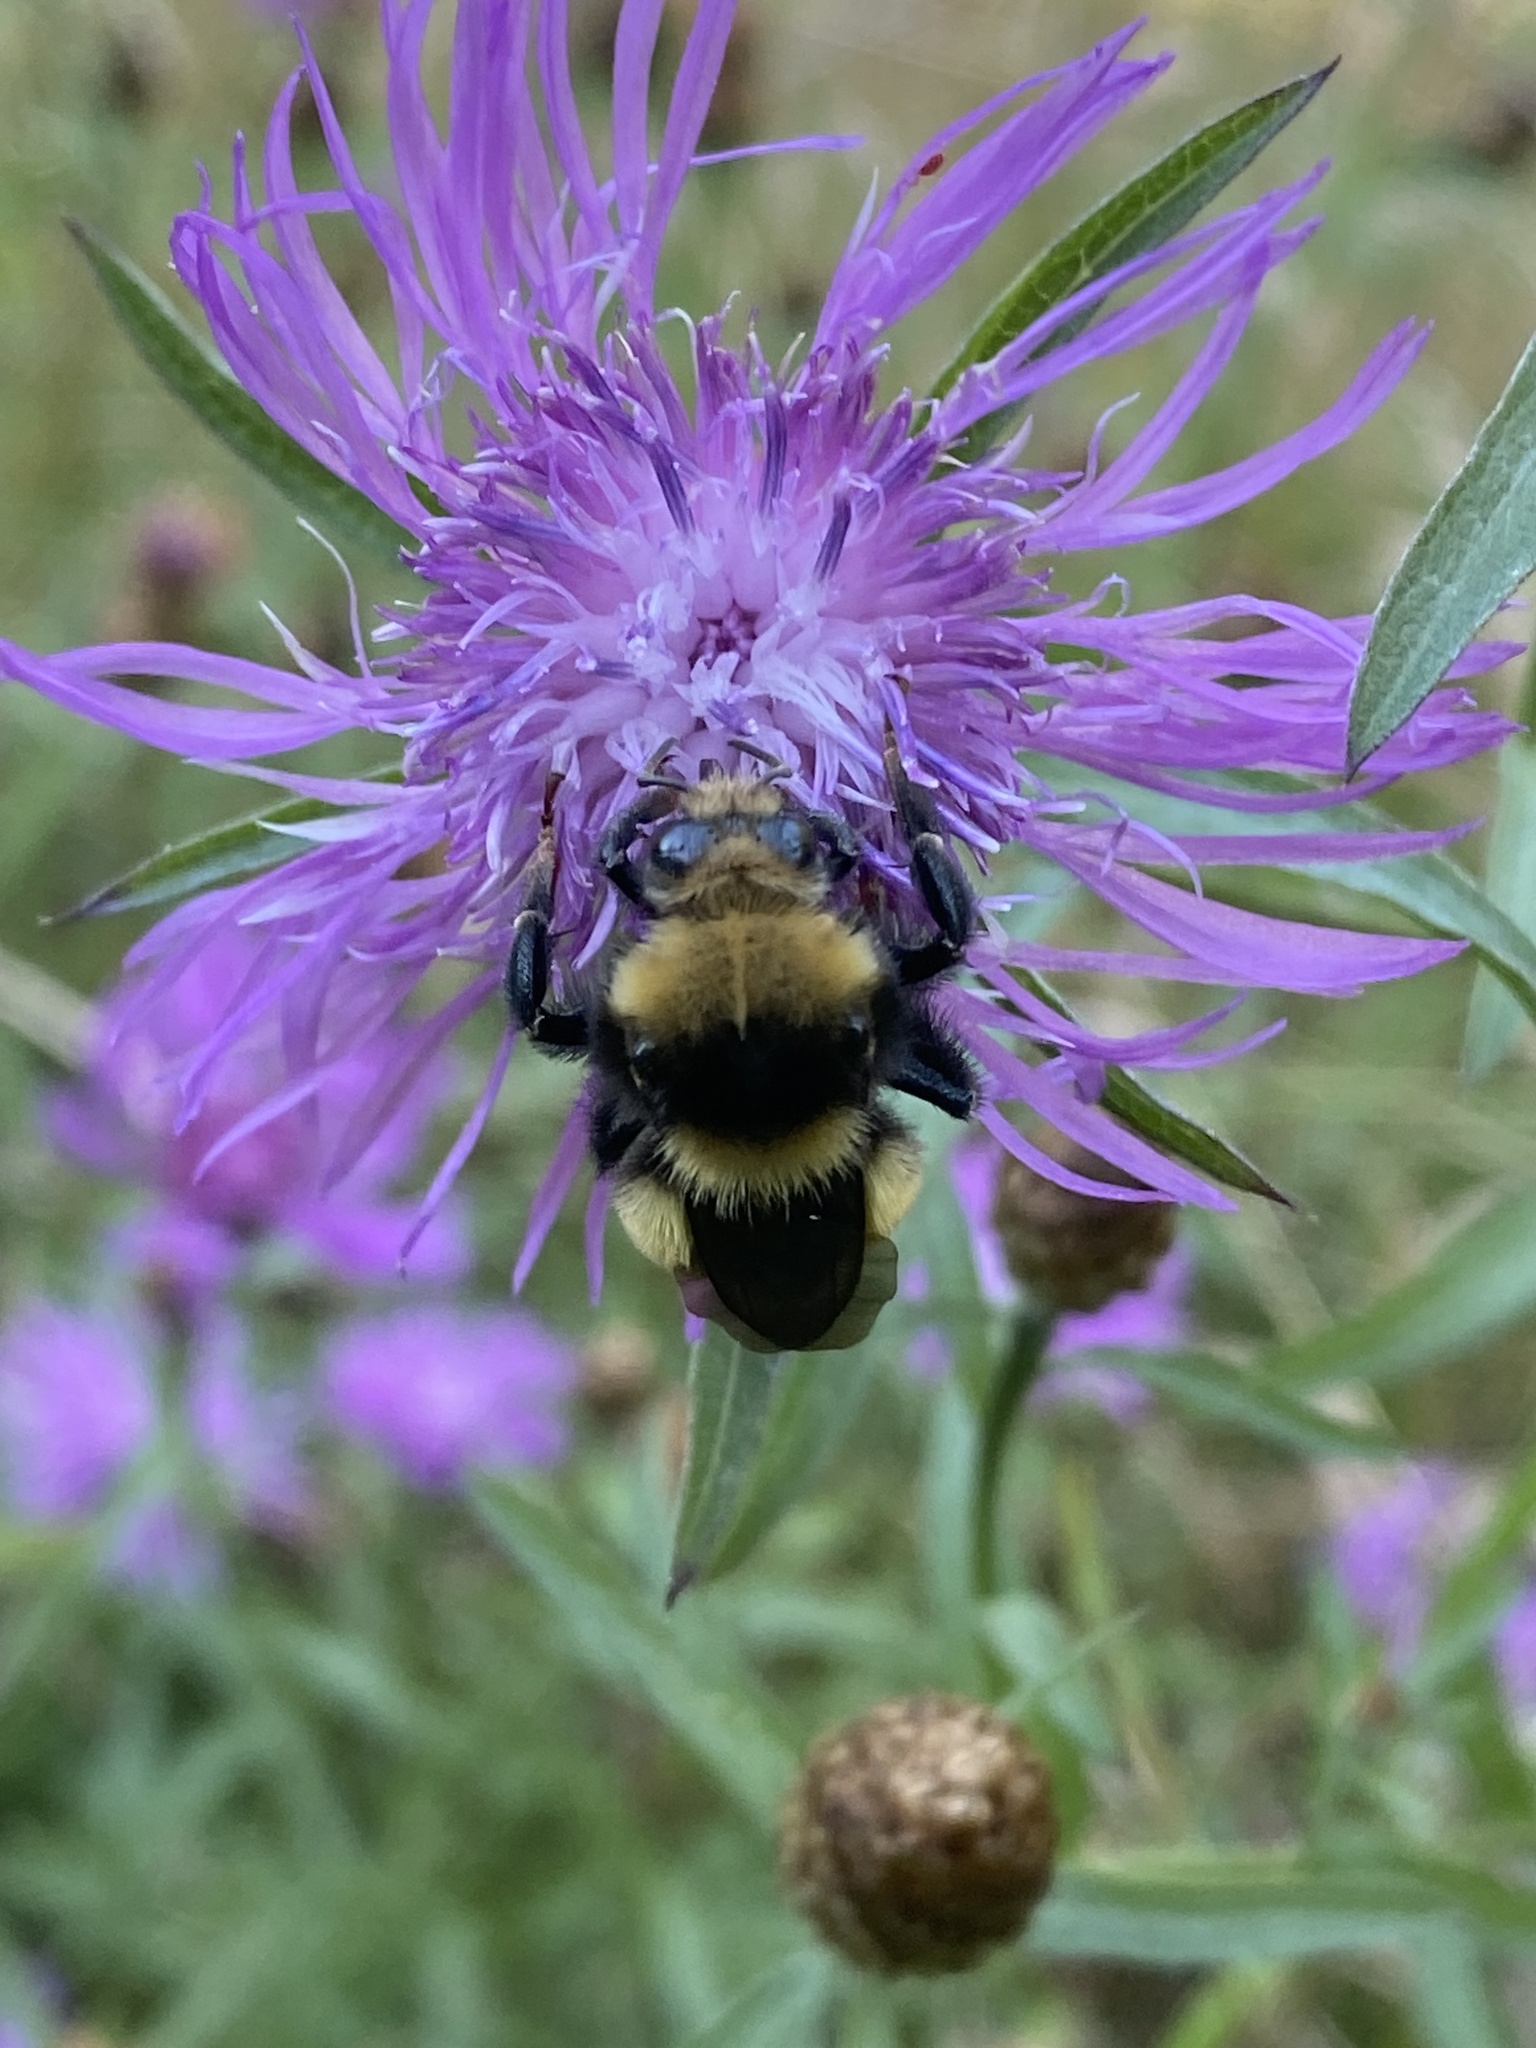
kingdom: Animalia
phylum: Arthropoda
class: Insecta
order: Hymenoptera
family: Apidae
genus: Bombus
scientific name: Bombus borealis
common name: Northern amber bumble bee
